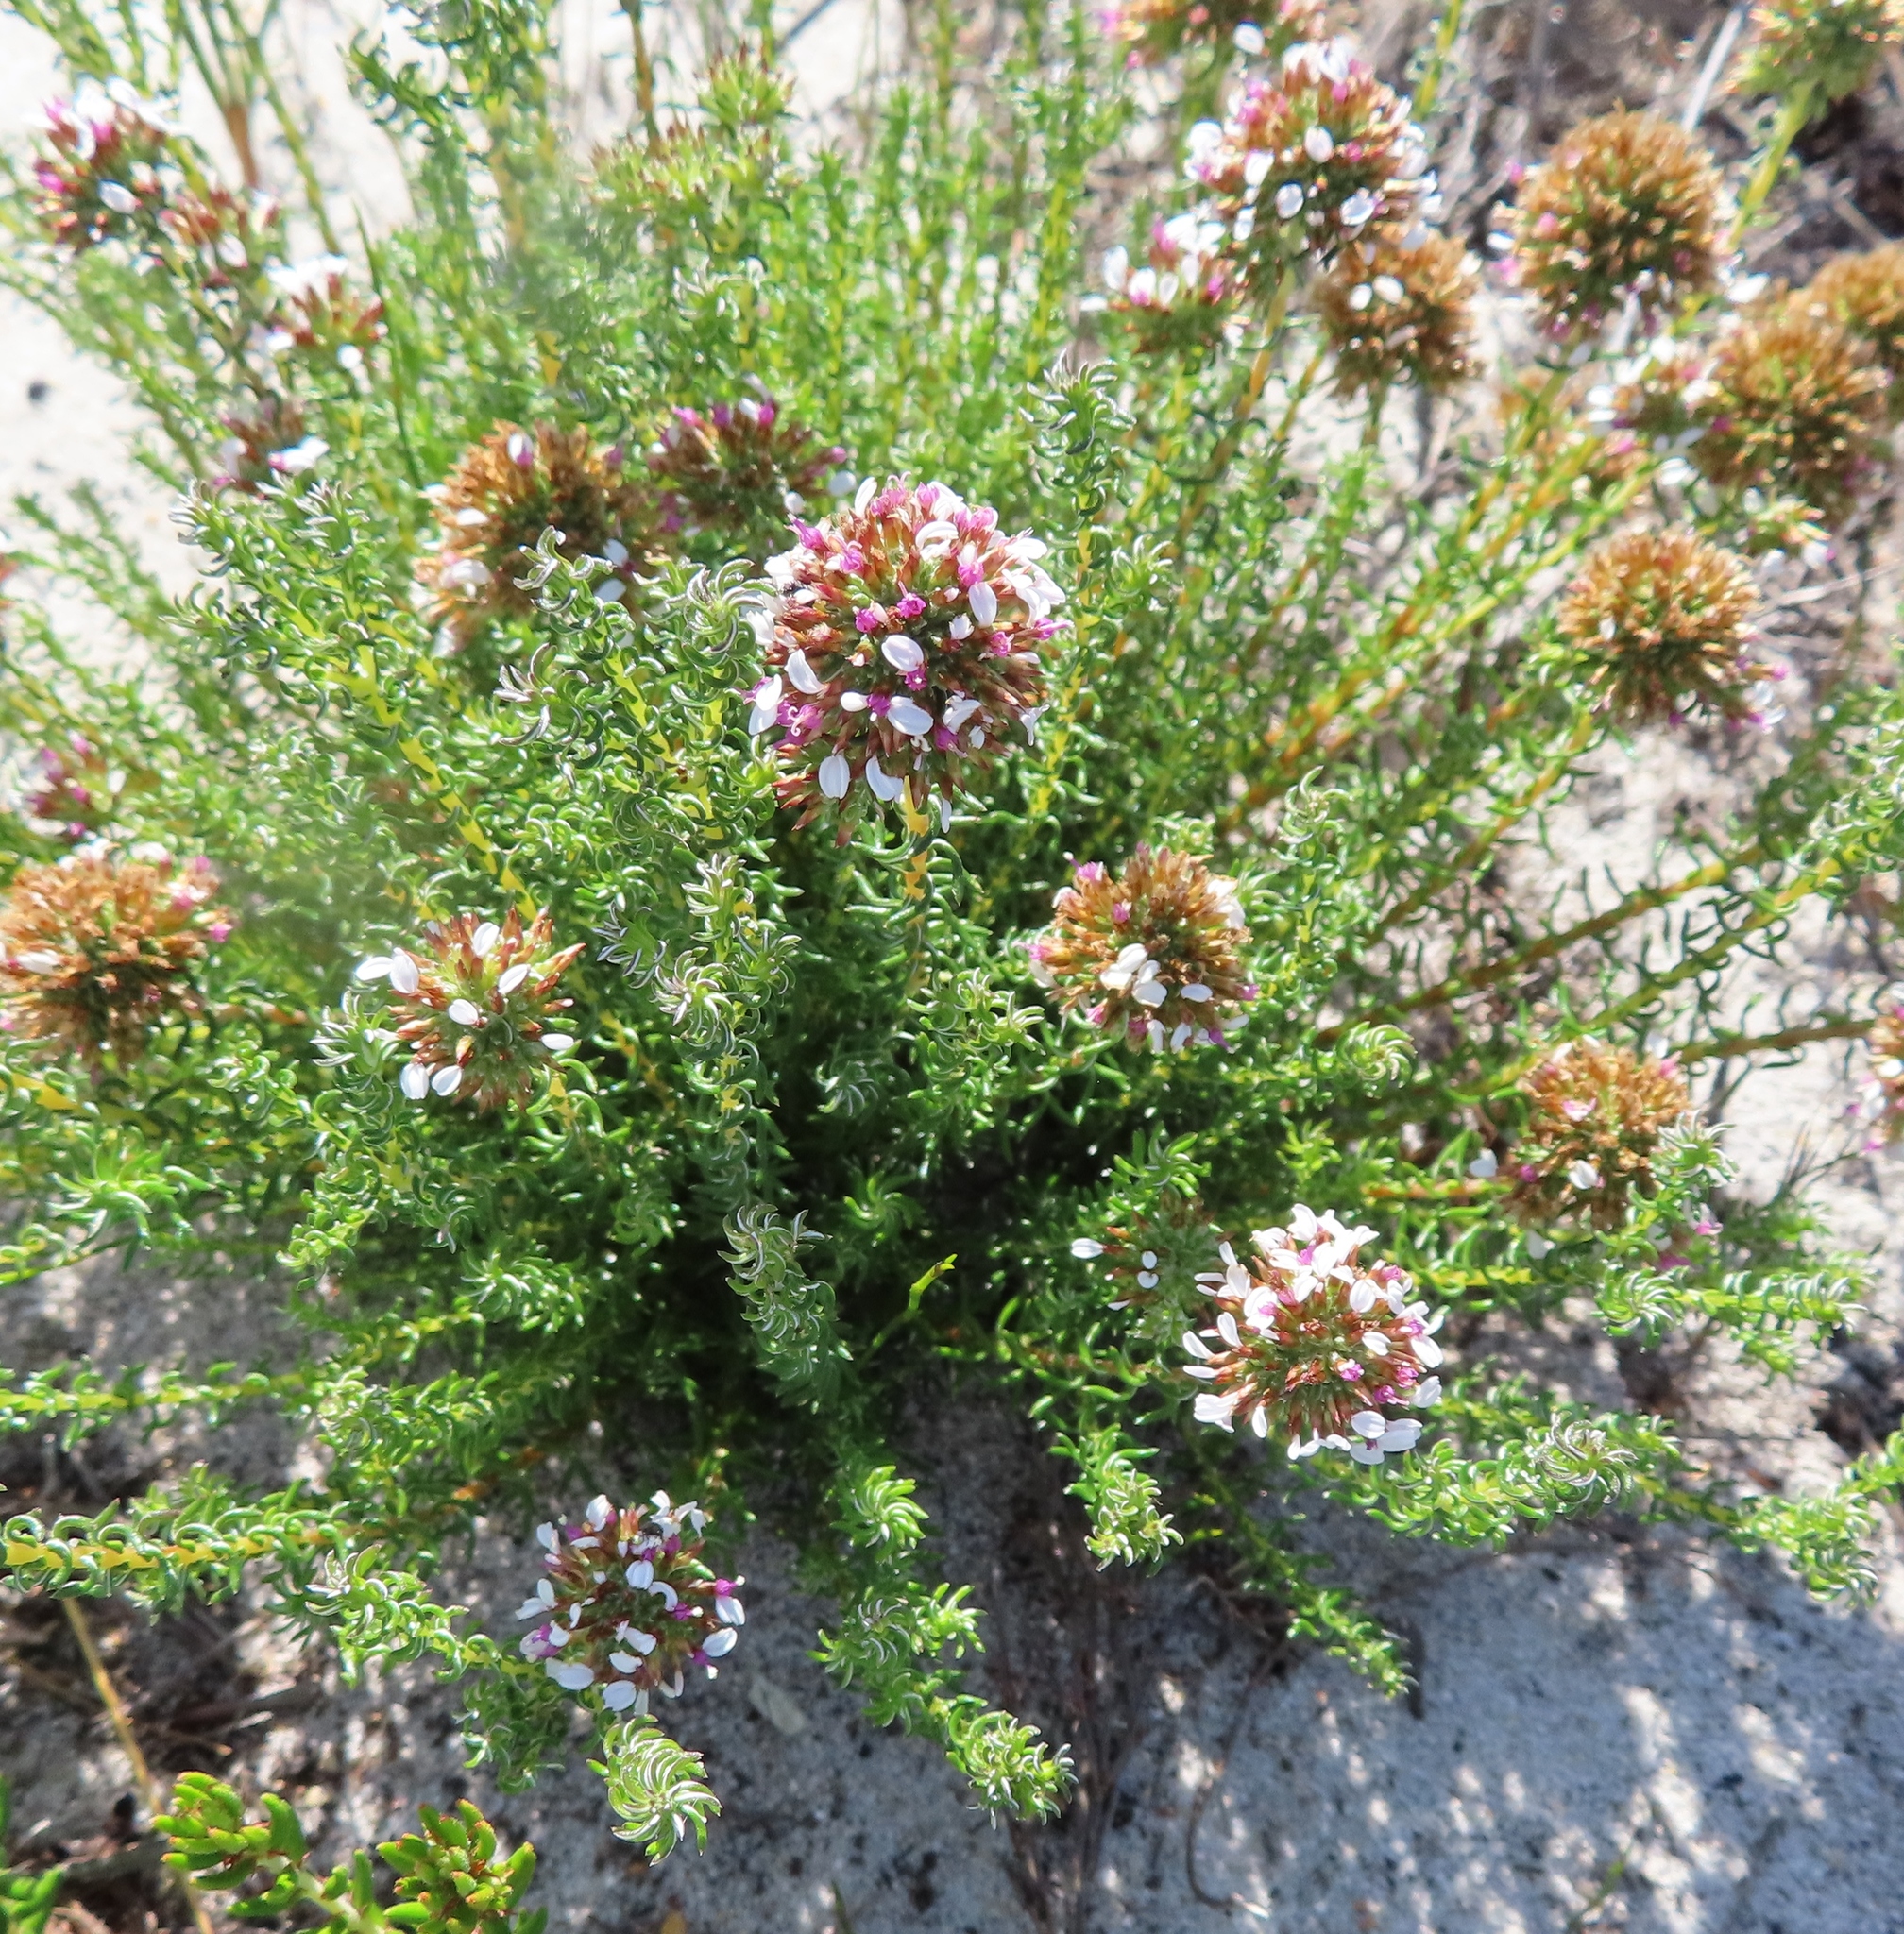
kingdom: Plantae
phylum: Tracheophyta
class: Magnoliopsida
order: Asterales
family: Asteraceae
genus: Disparago
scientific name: Disparago anomala
